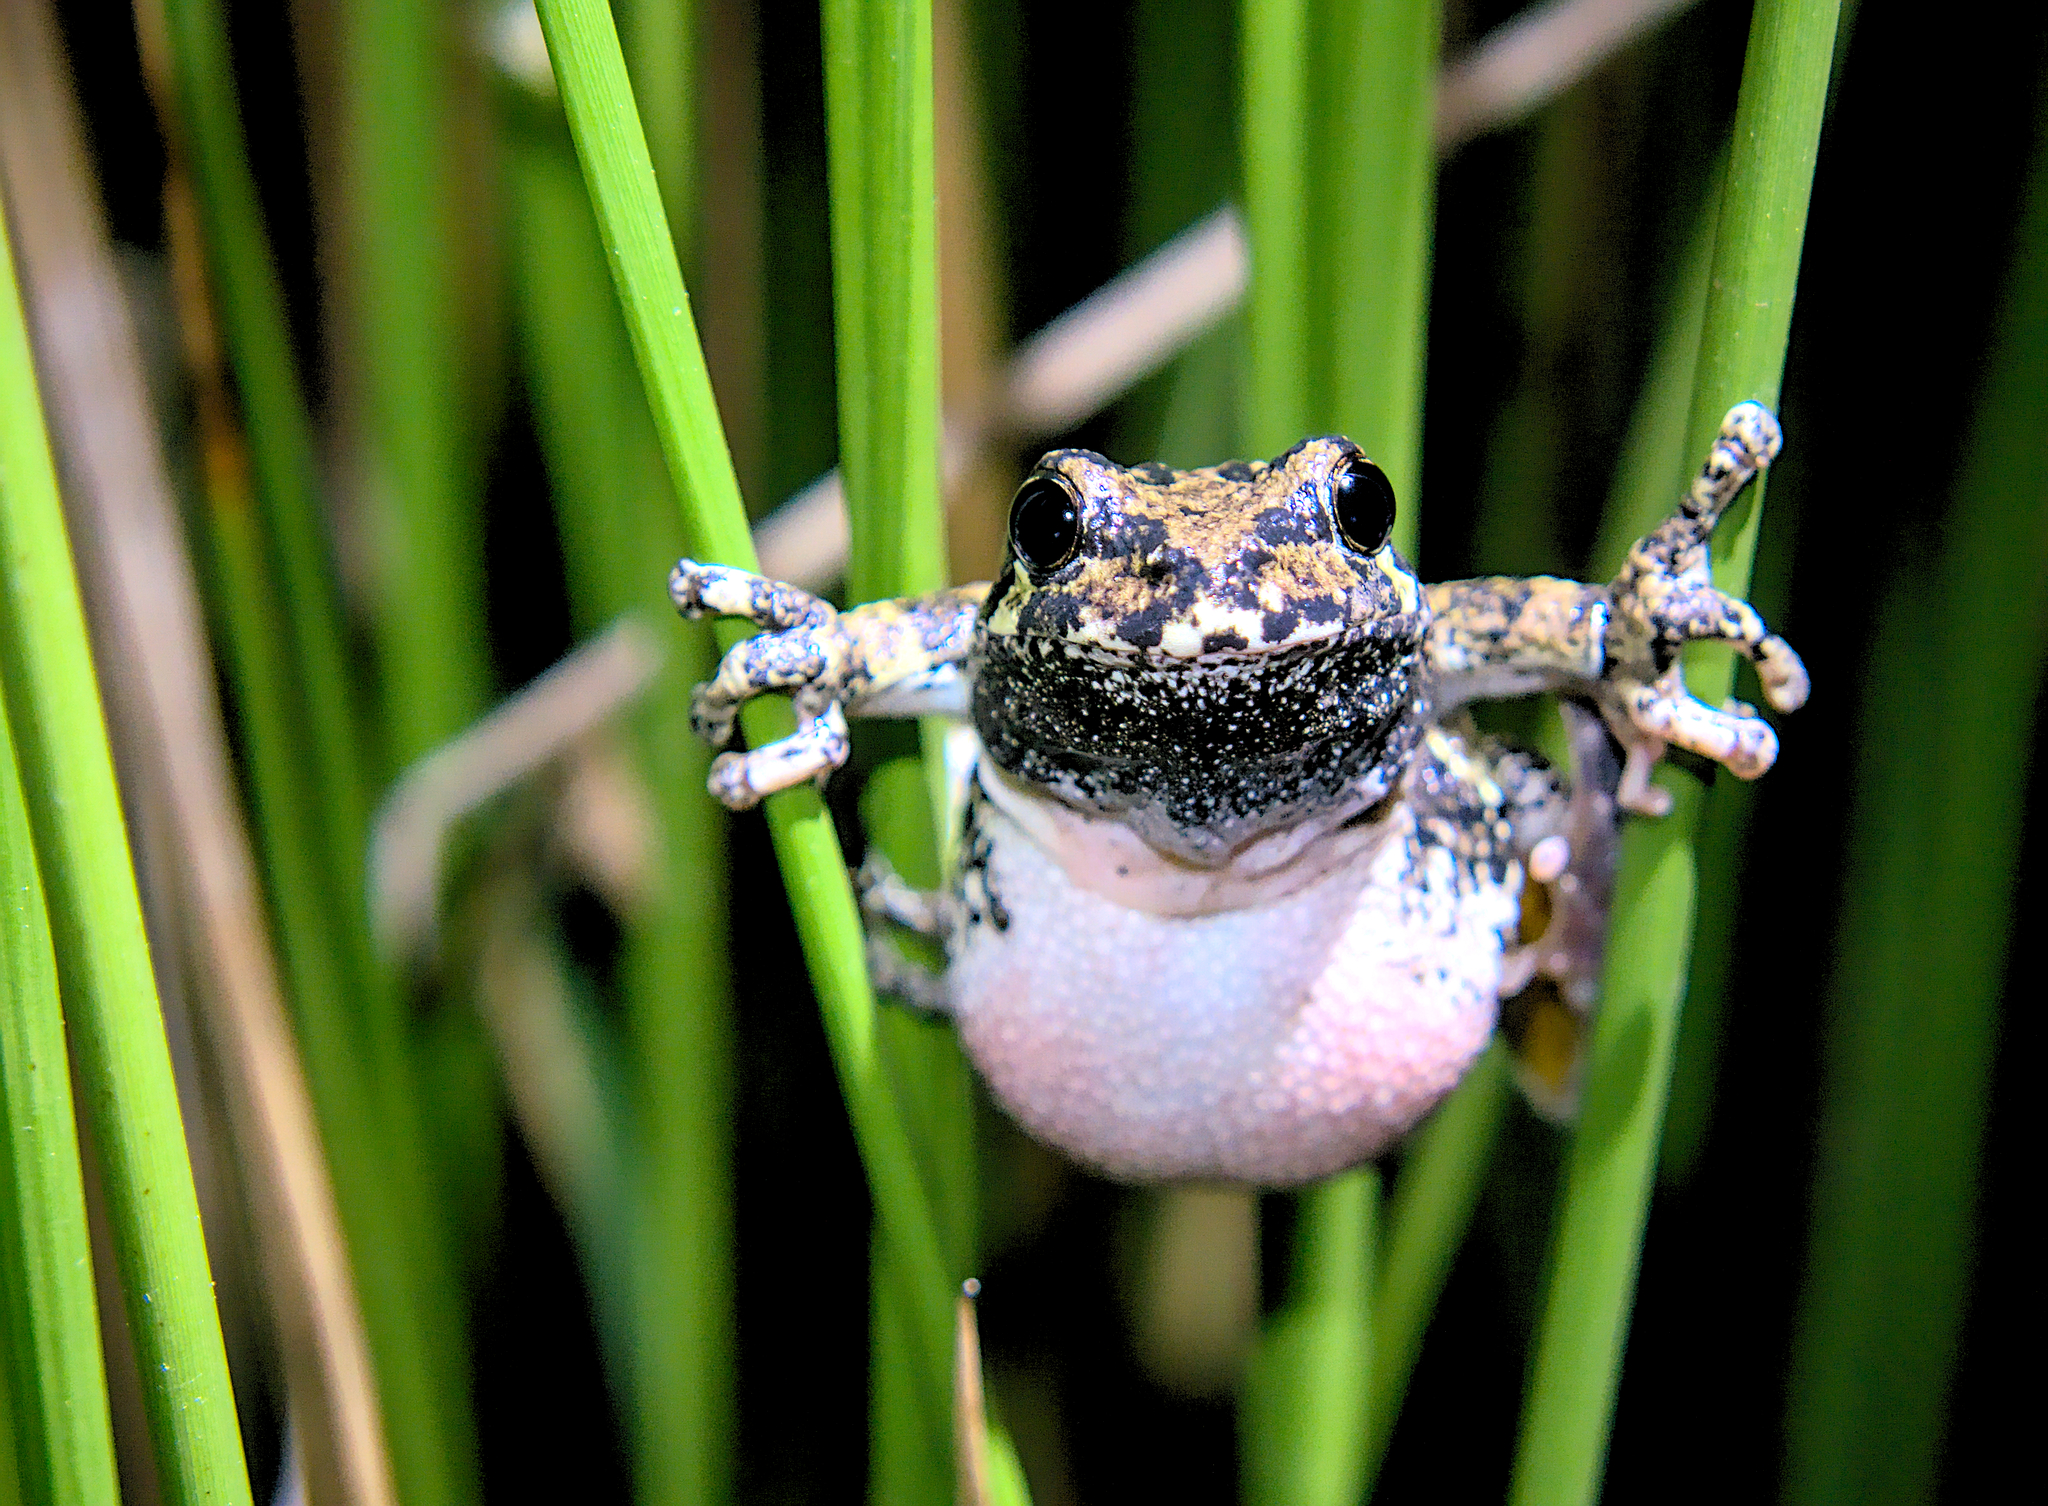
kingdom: Animalia
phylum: Chordata
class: Amphibia
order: Anura
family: Hylidae
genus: Dryophytes
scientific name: Dryophytes versicolor
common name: Gray treefrog
